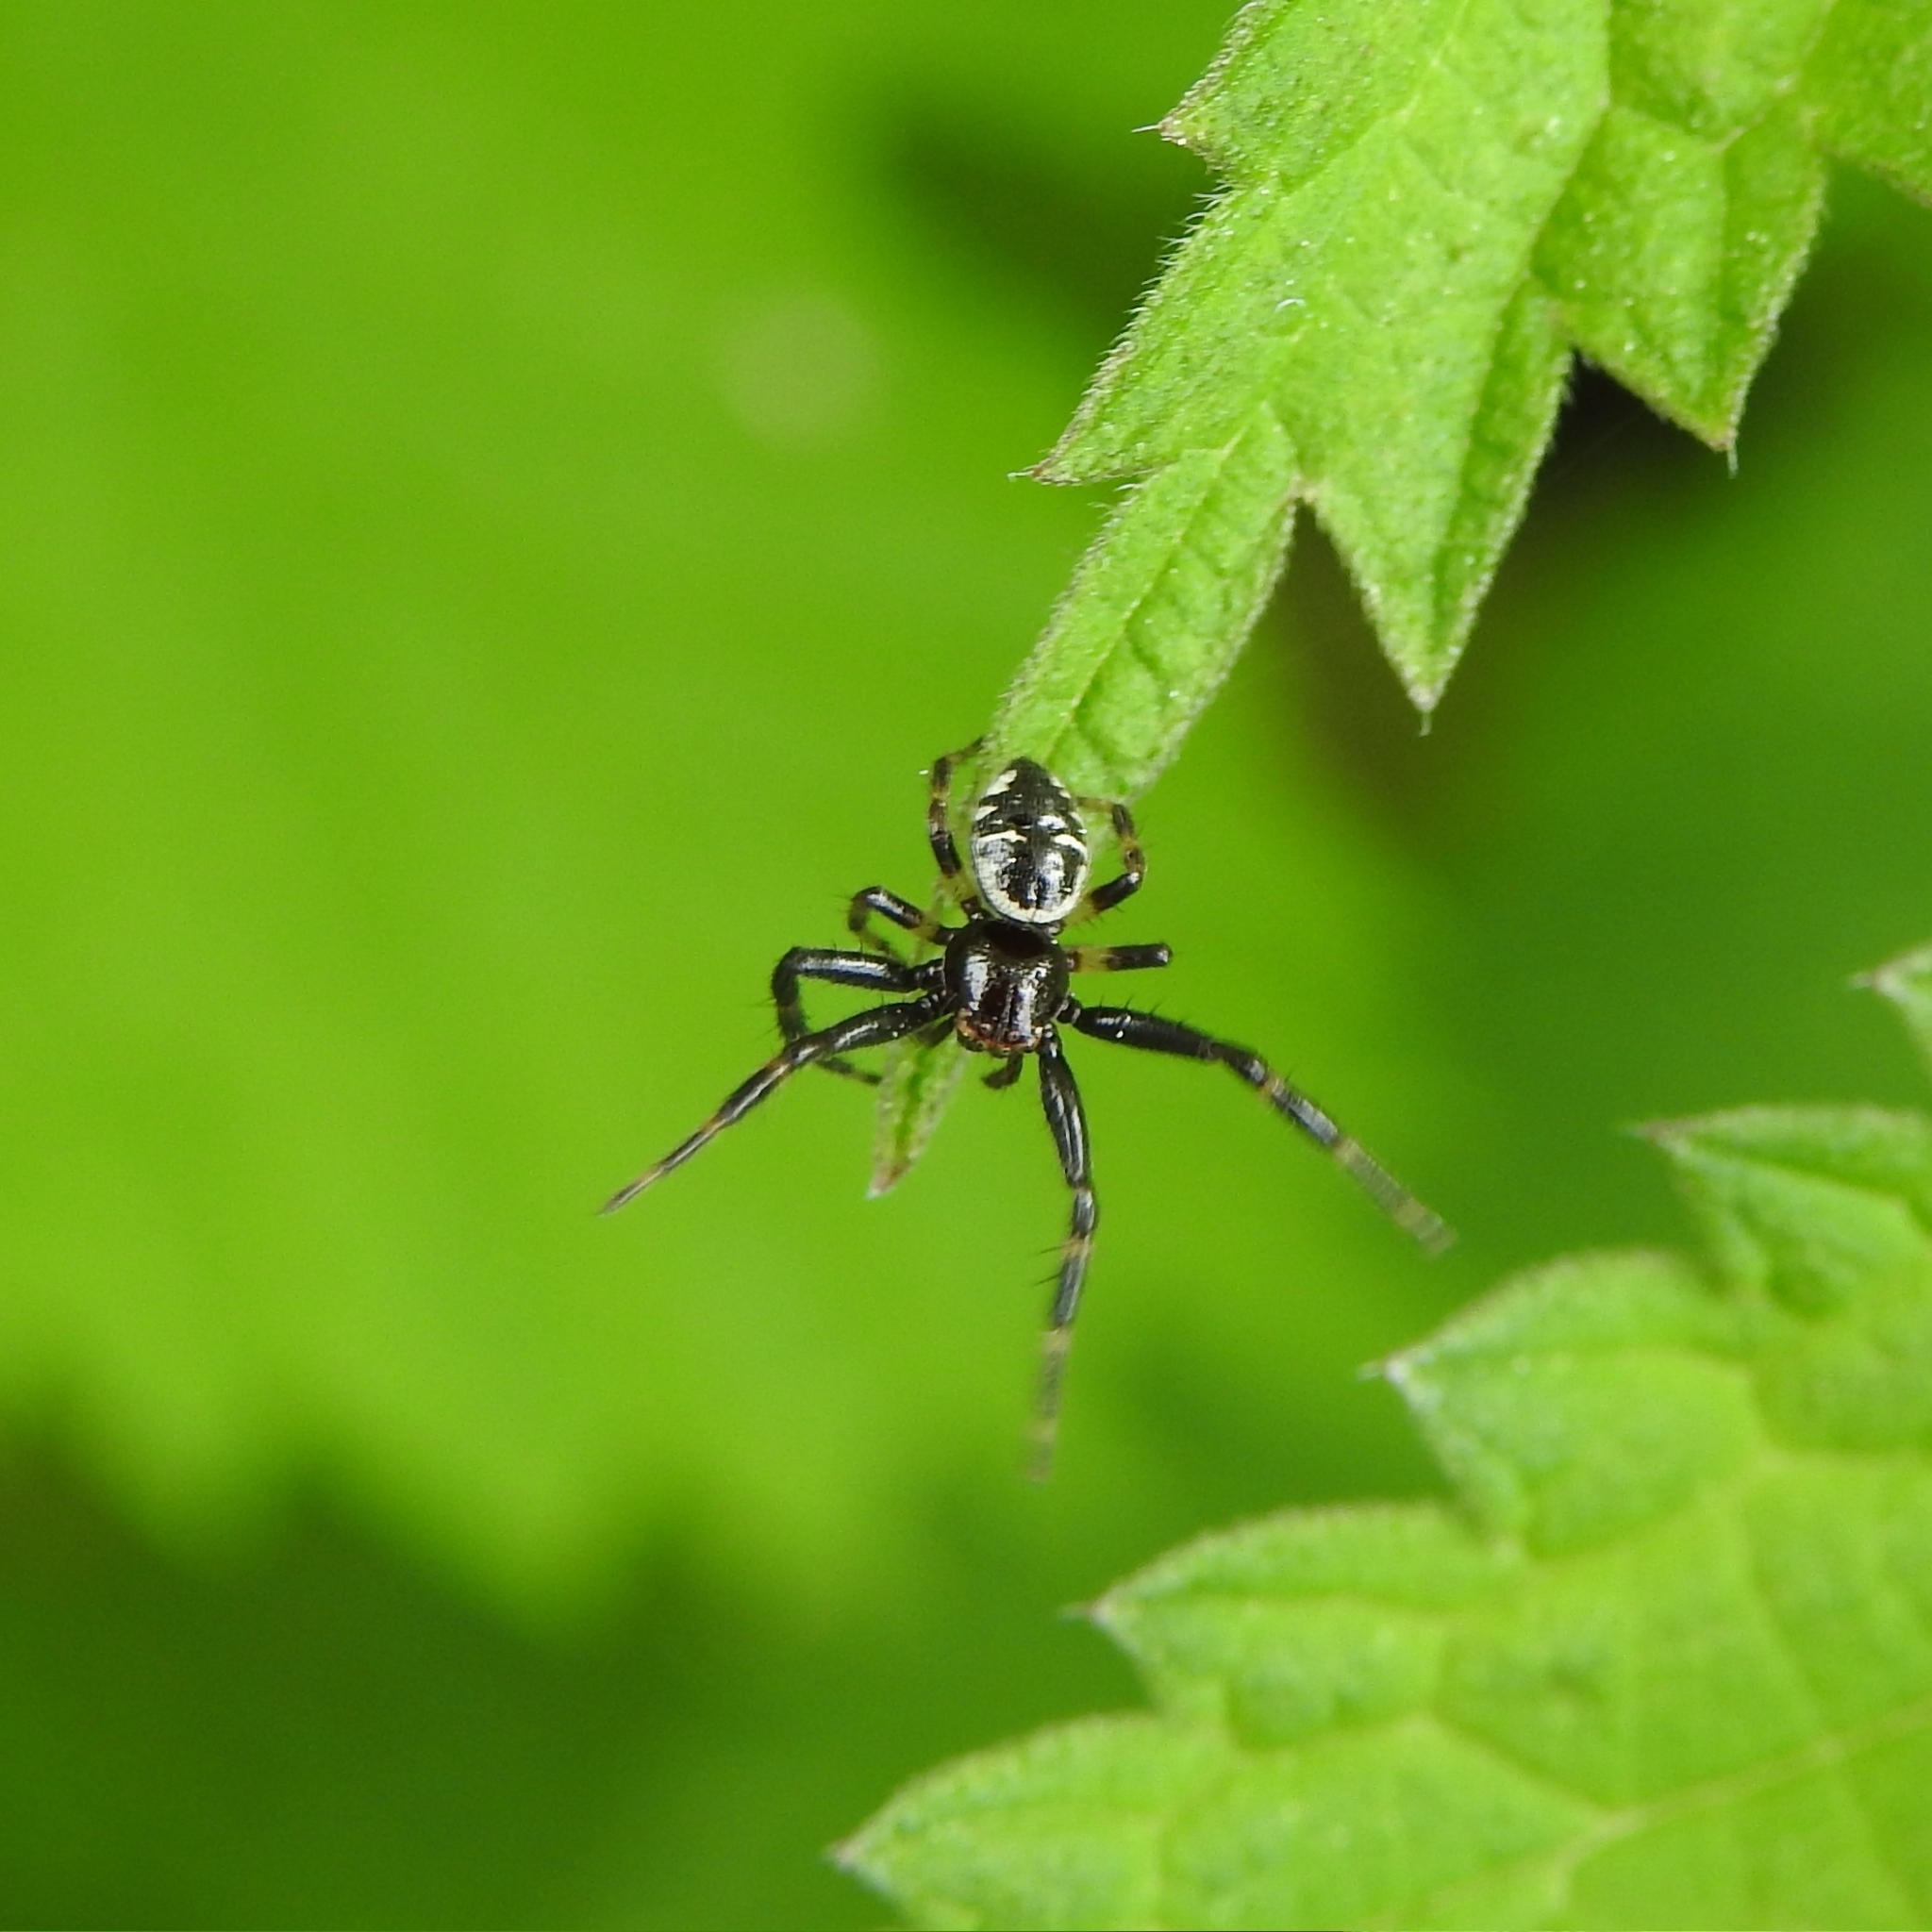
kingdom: Animalia
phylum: Arthropoda
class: Arachnida
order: Araneae
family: Thomisidae
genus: Synema
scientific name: Synema globosum
